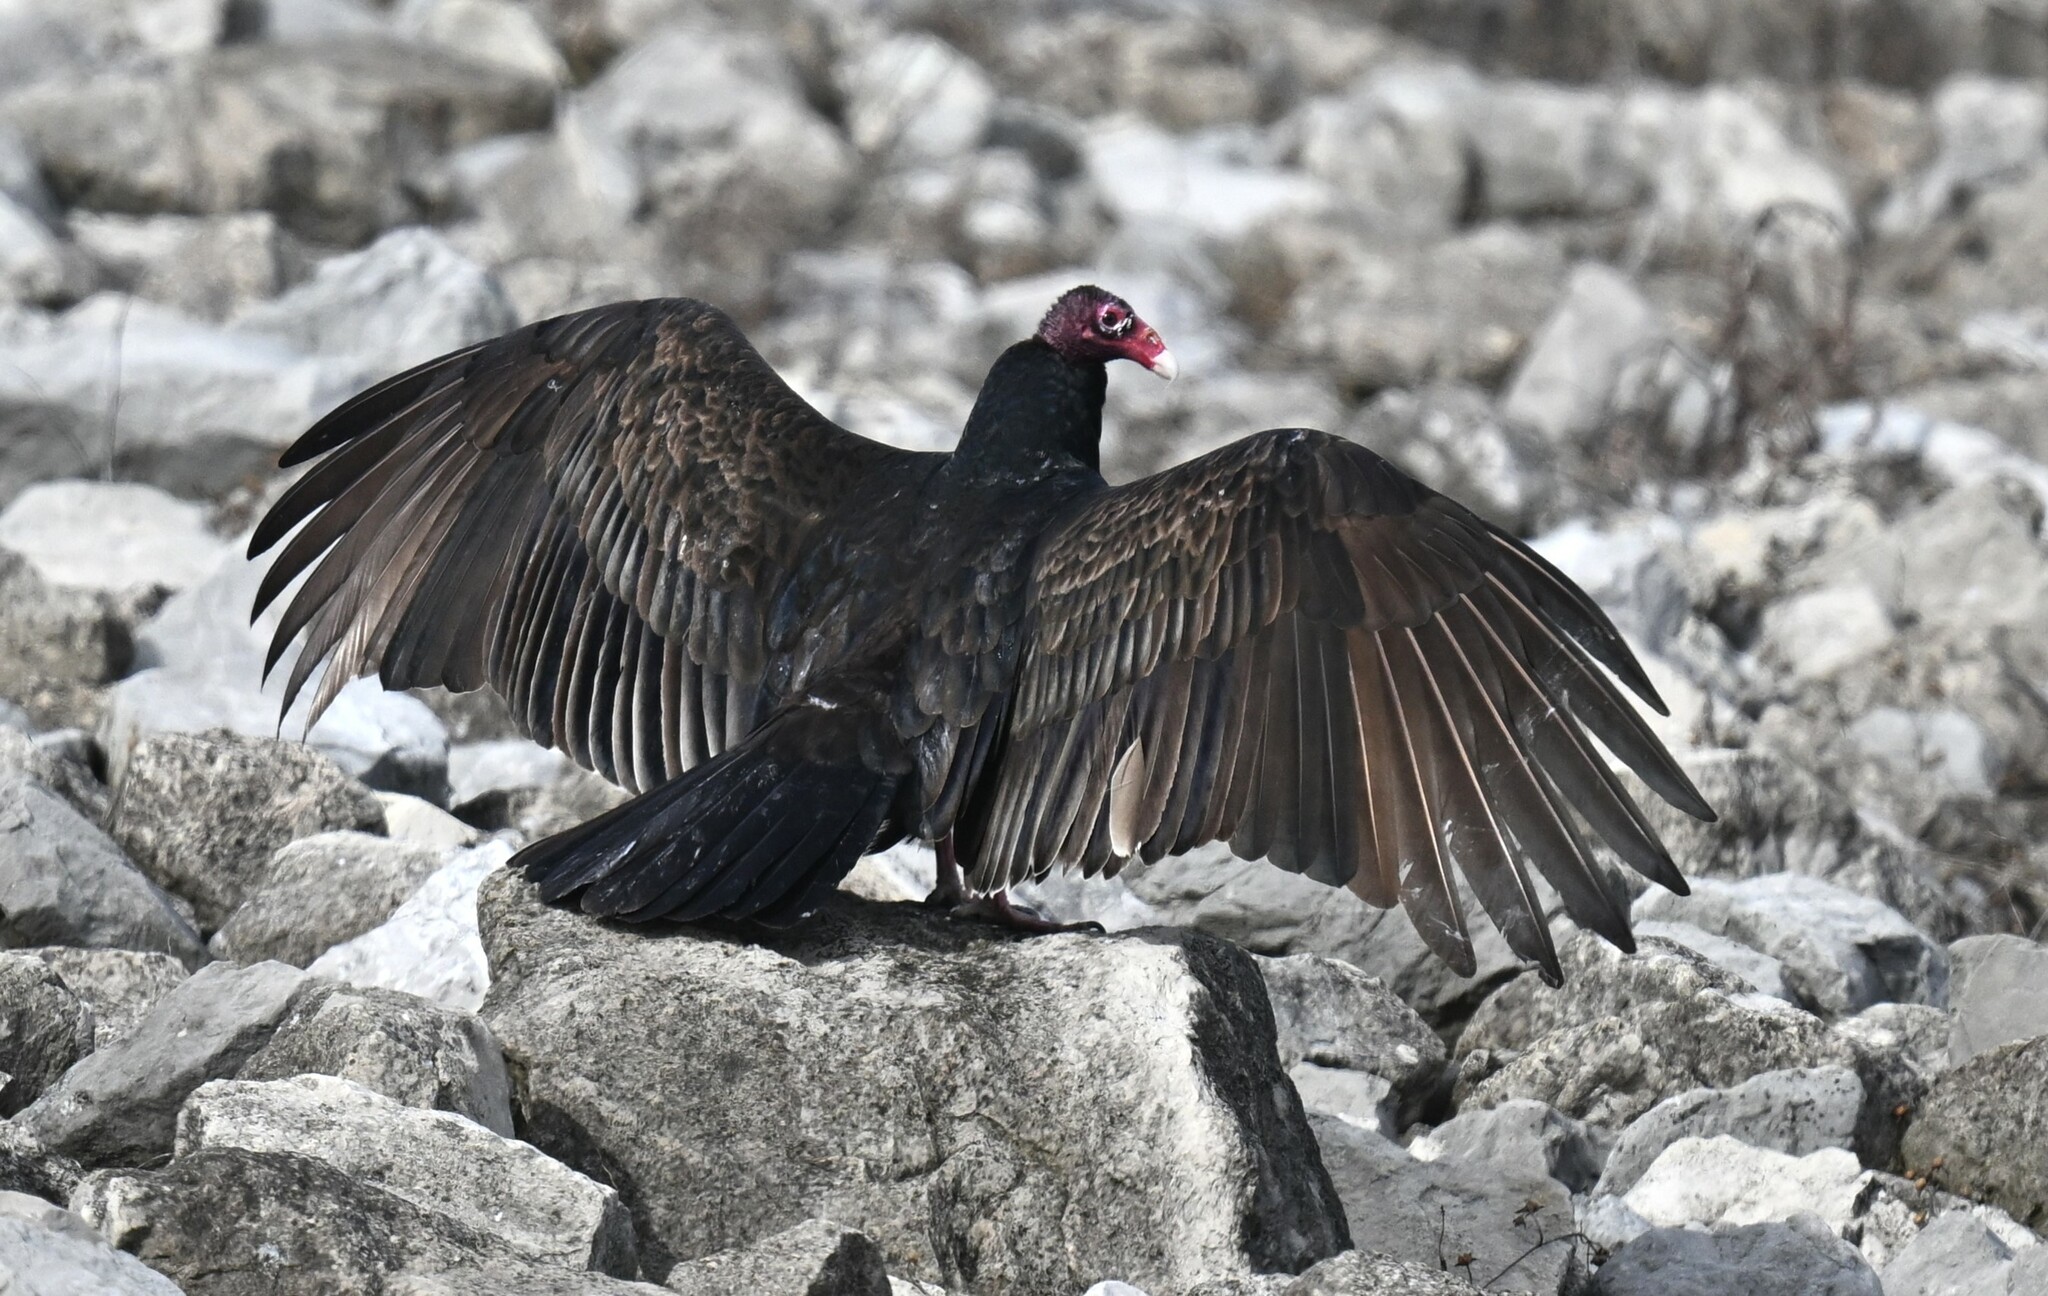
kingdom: Animalia
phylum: Chordata
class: Aves
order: Accipitriformes
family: Cathartidae
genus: Cathartes
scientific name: Cathartes aura
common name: Turkey vulture
